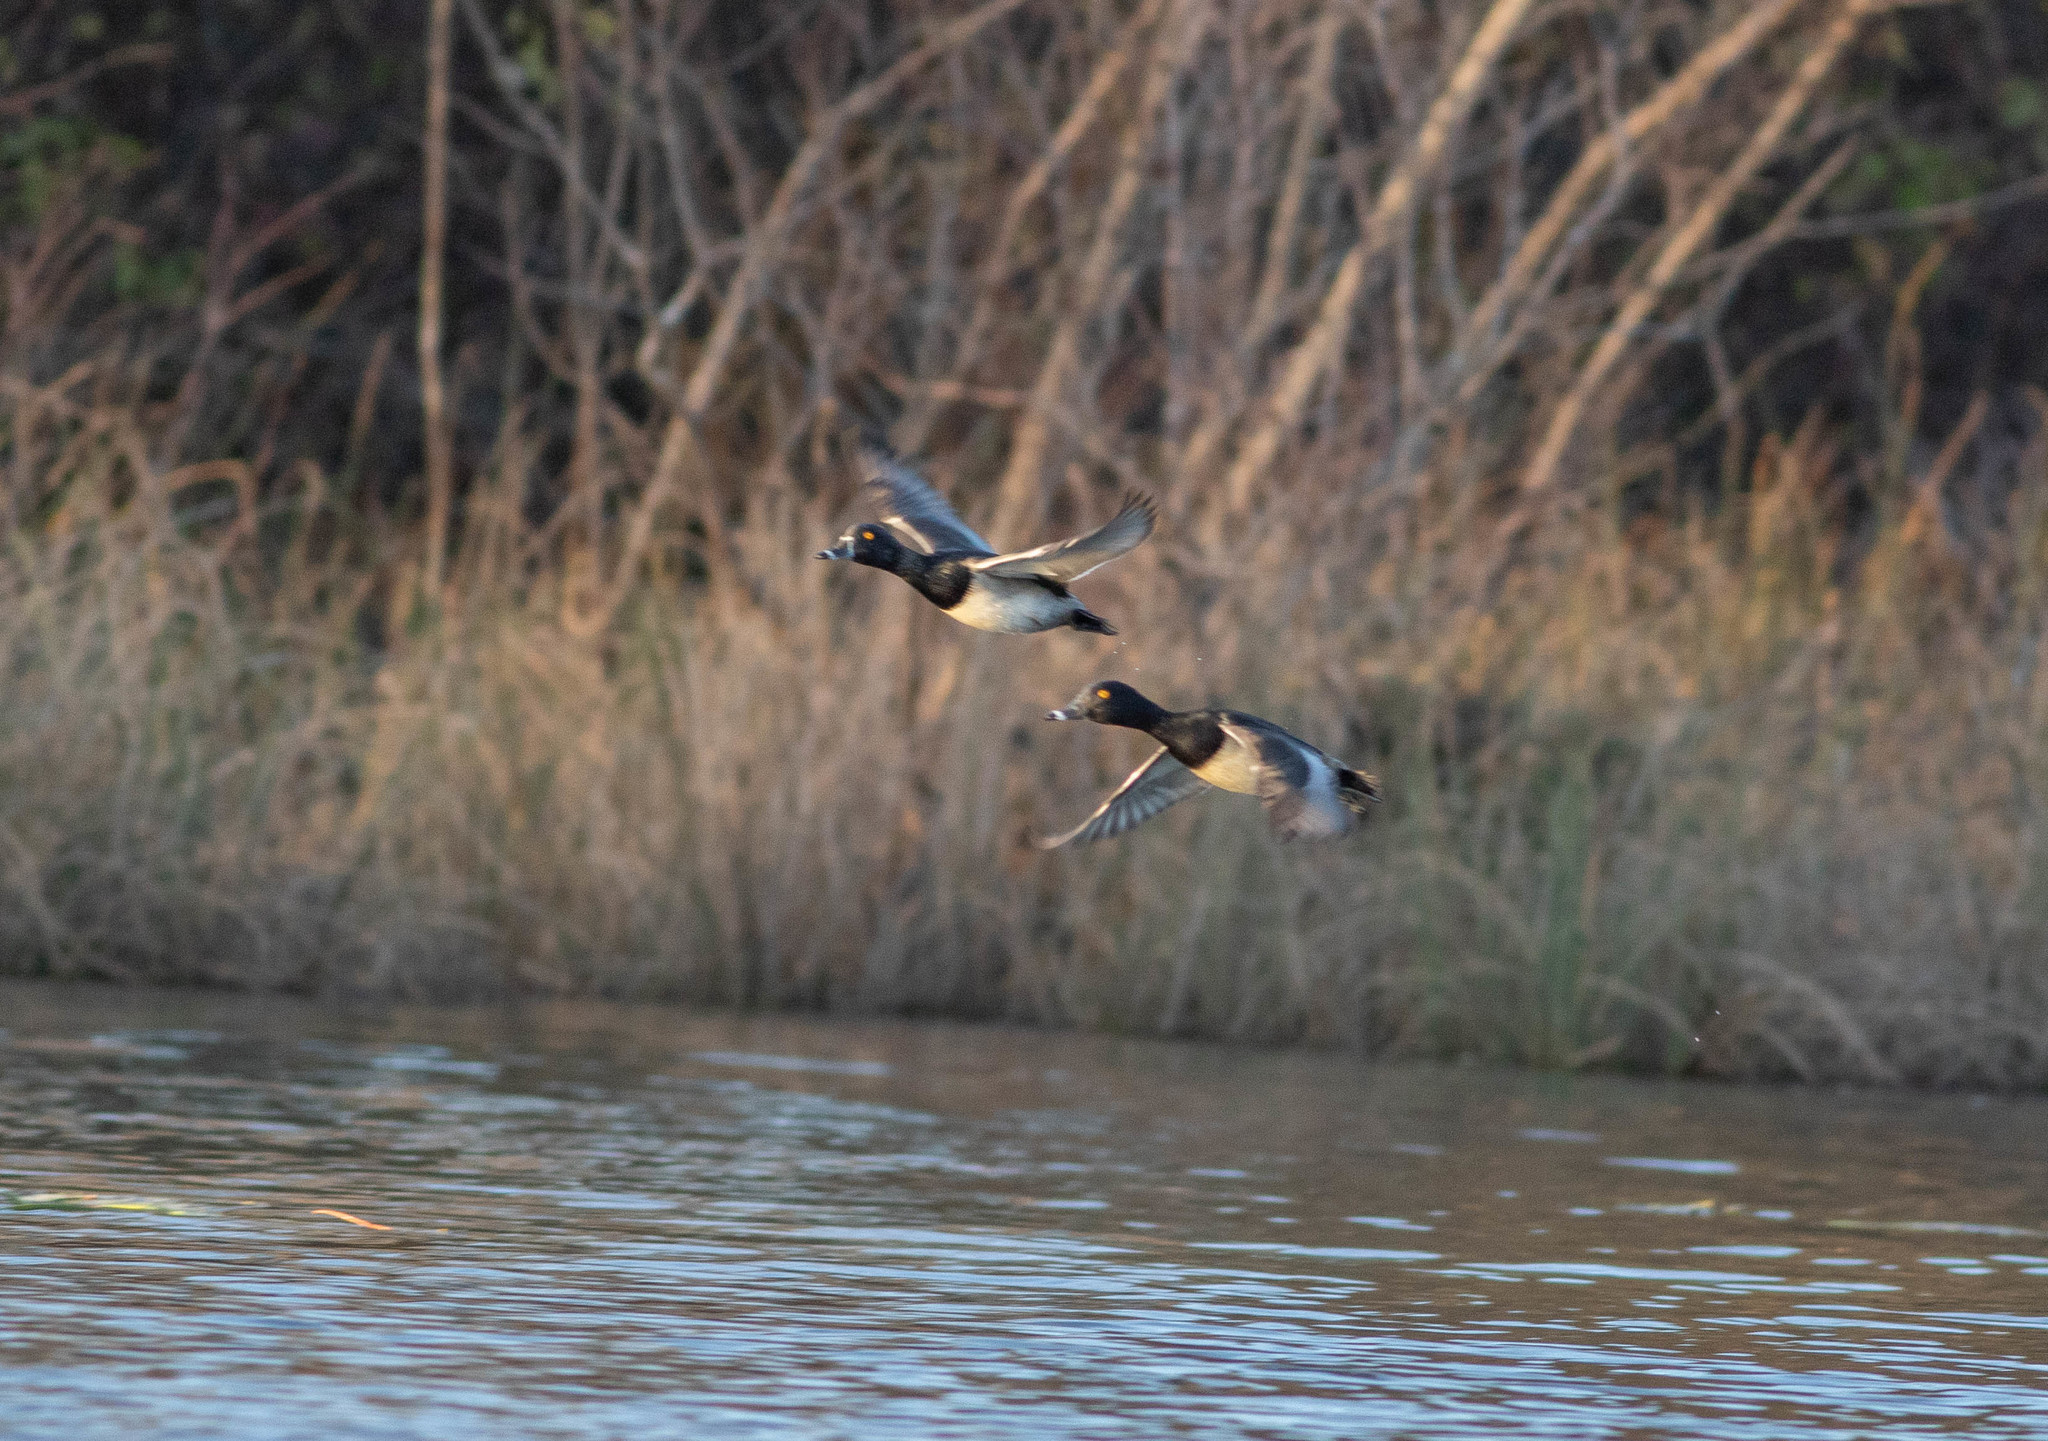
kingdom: Animalia
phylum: Chordata
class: Aves
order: Anseriformes
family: Anatidae
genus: Aythya
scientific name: Aythya collaris
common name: Ring-necked duck
